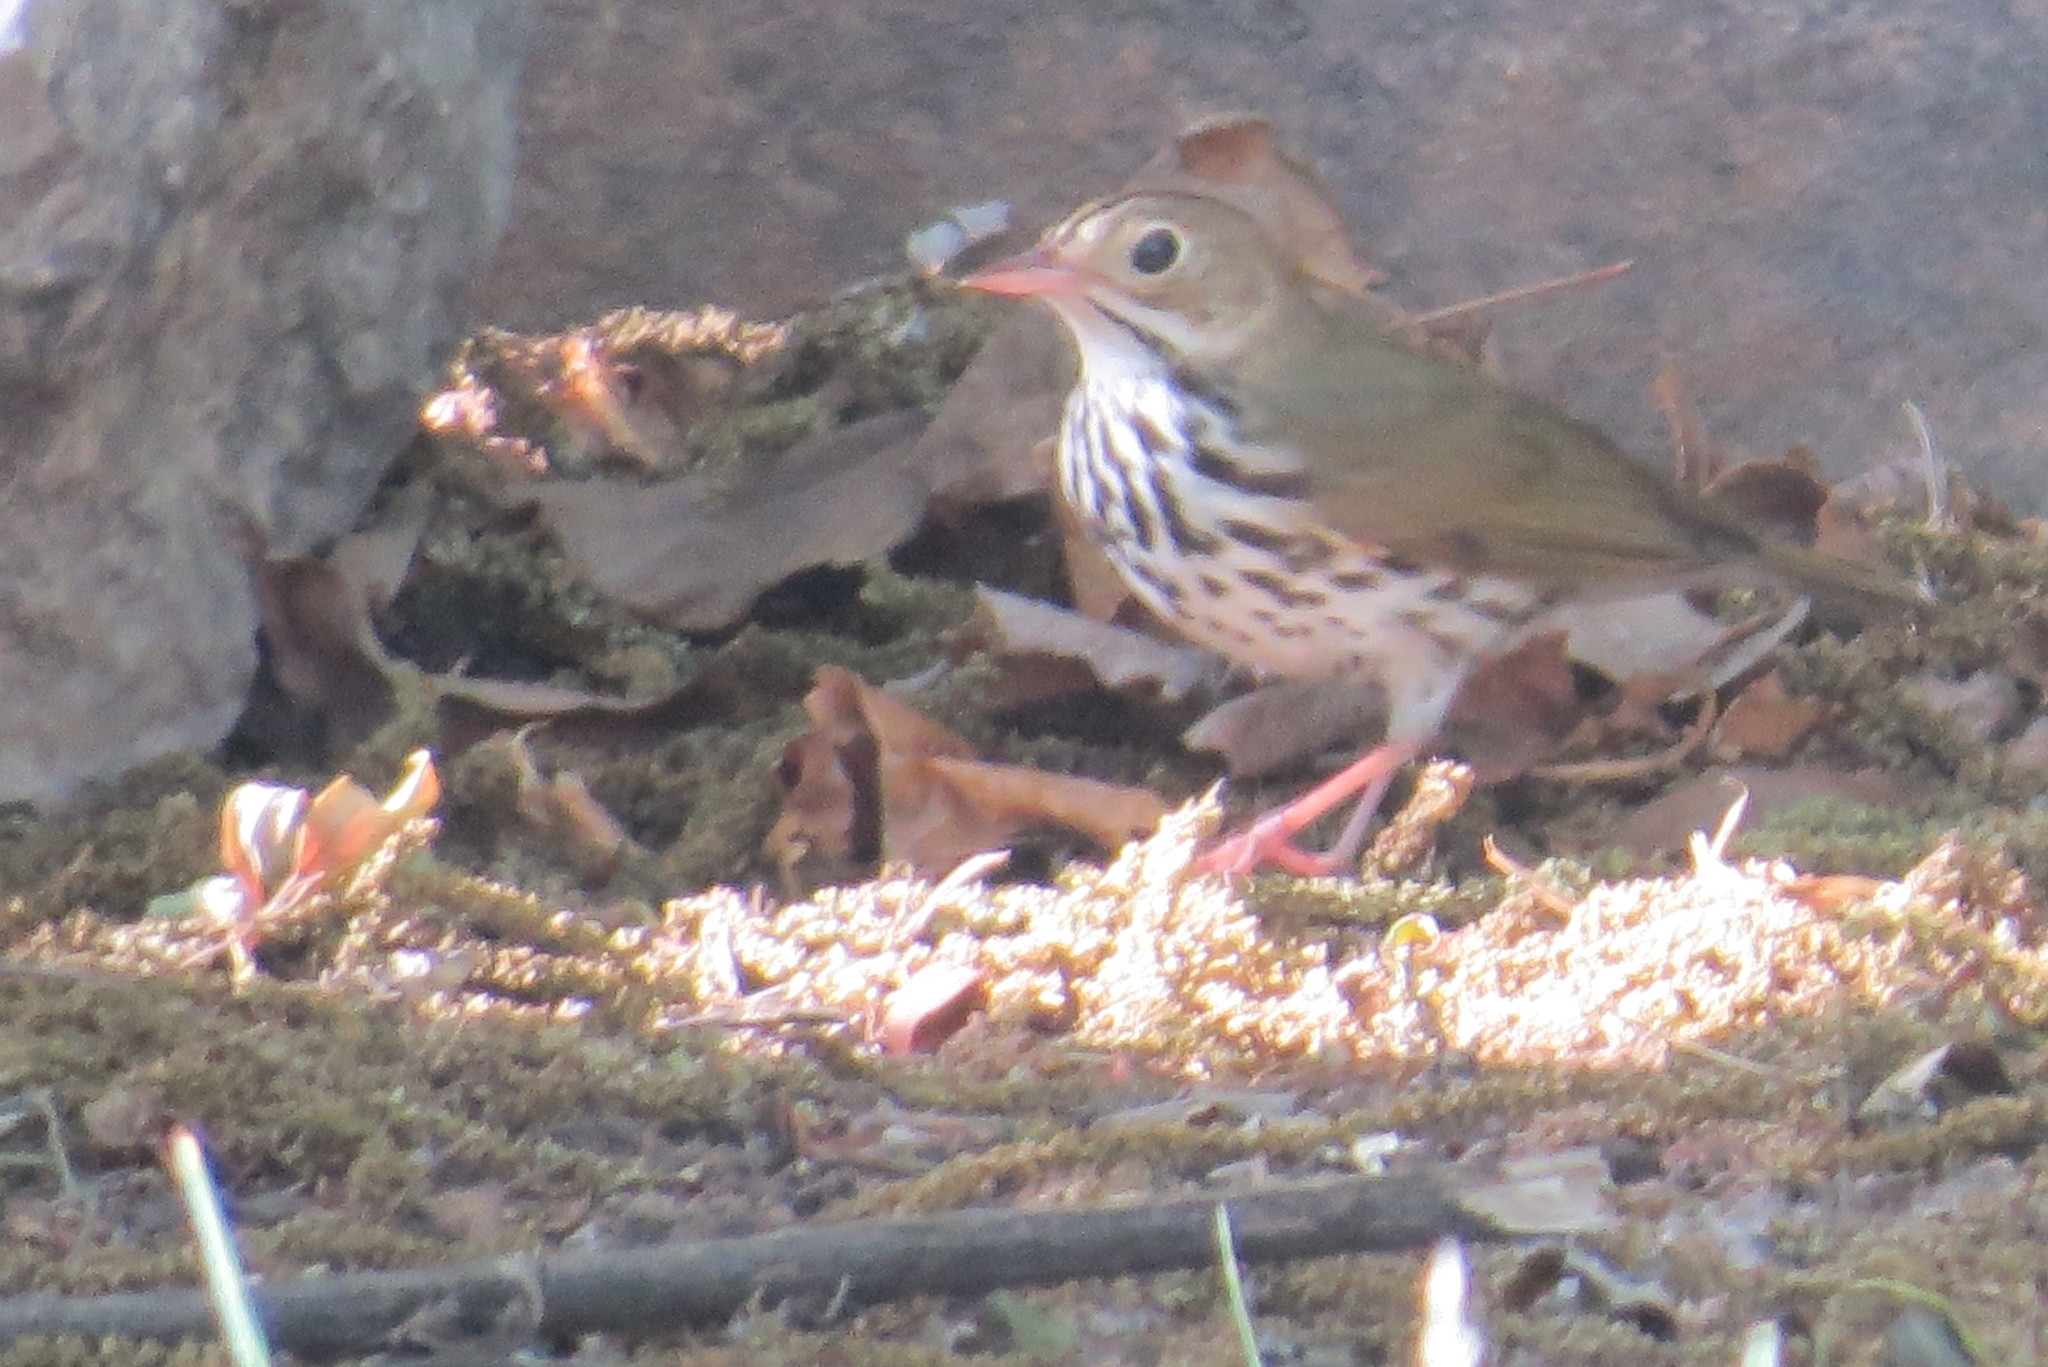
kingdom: Animalia
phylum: Chordata
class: Aves
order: Passeriformes
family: Parulidae
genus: Seiurus
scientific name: Seiurus aurocapilla
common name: Ovenbird
